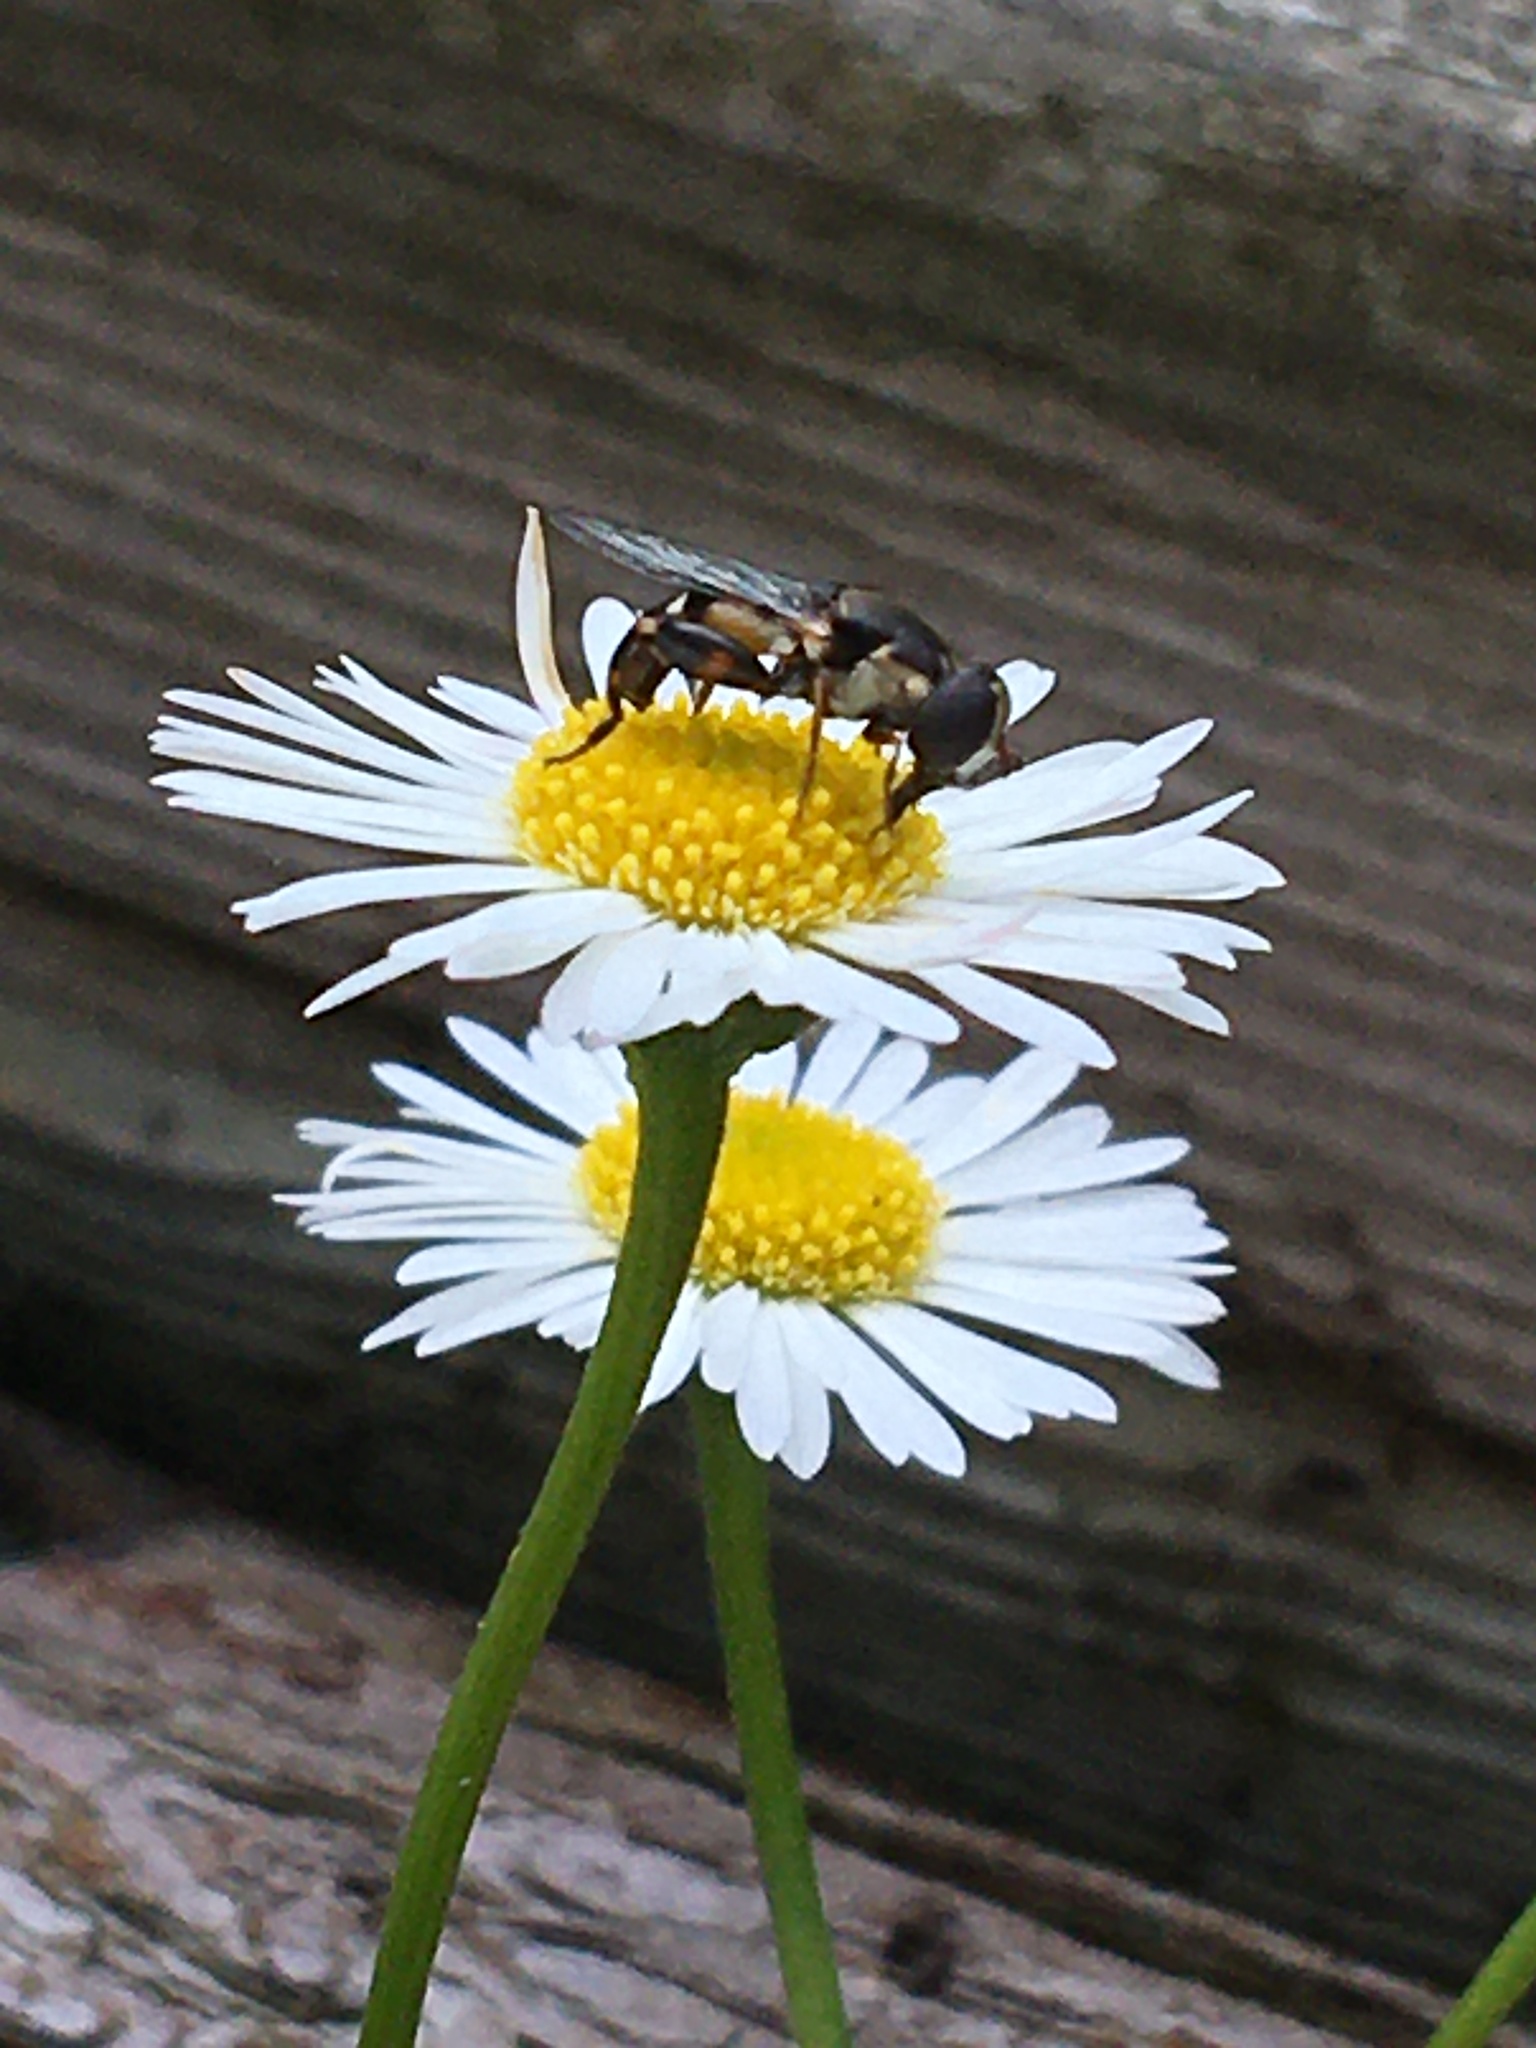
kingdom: Animalia
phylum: Arthropoda
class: Insecta
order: Diptera
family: Syrphidae
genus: Syritta
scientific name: Syritta pipiens
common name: Hover fly
